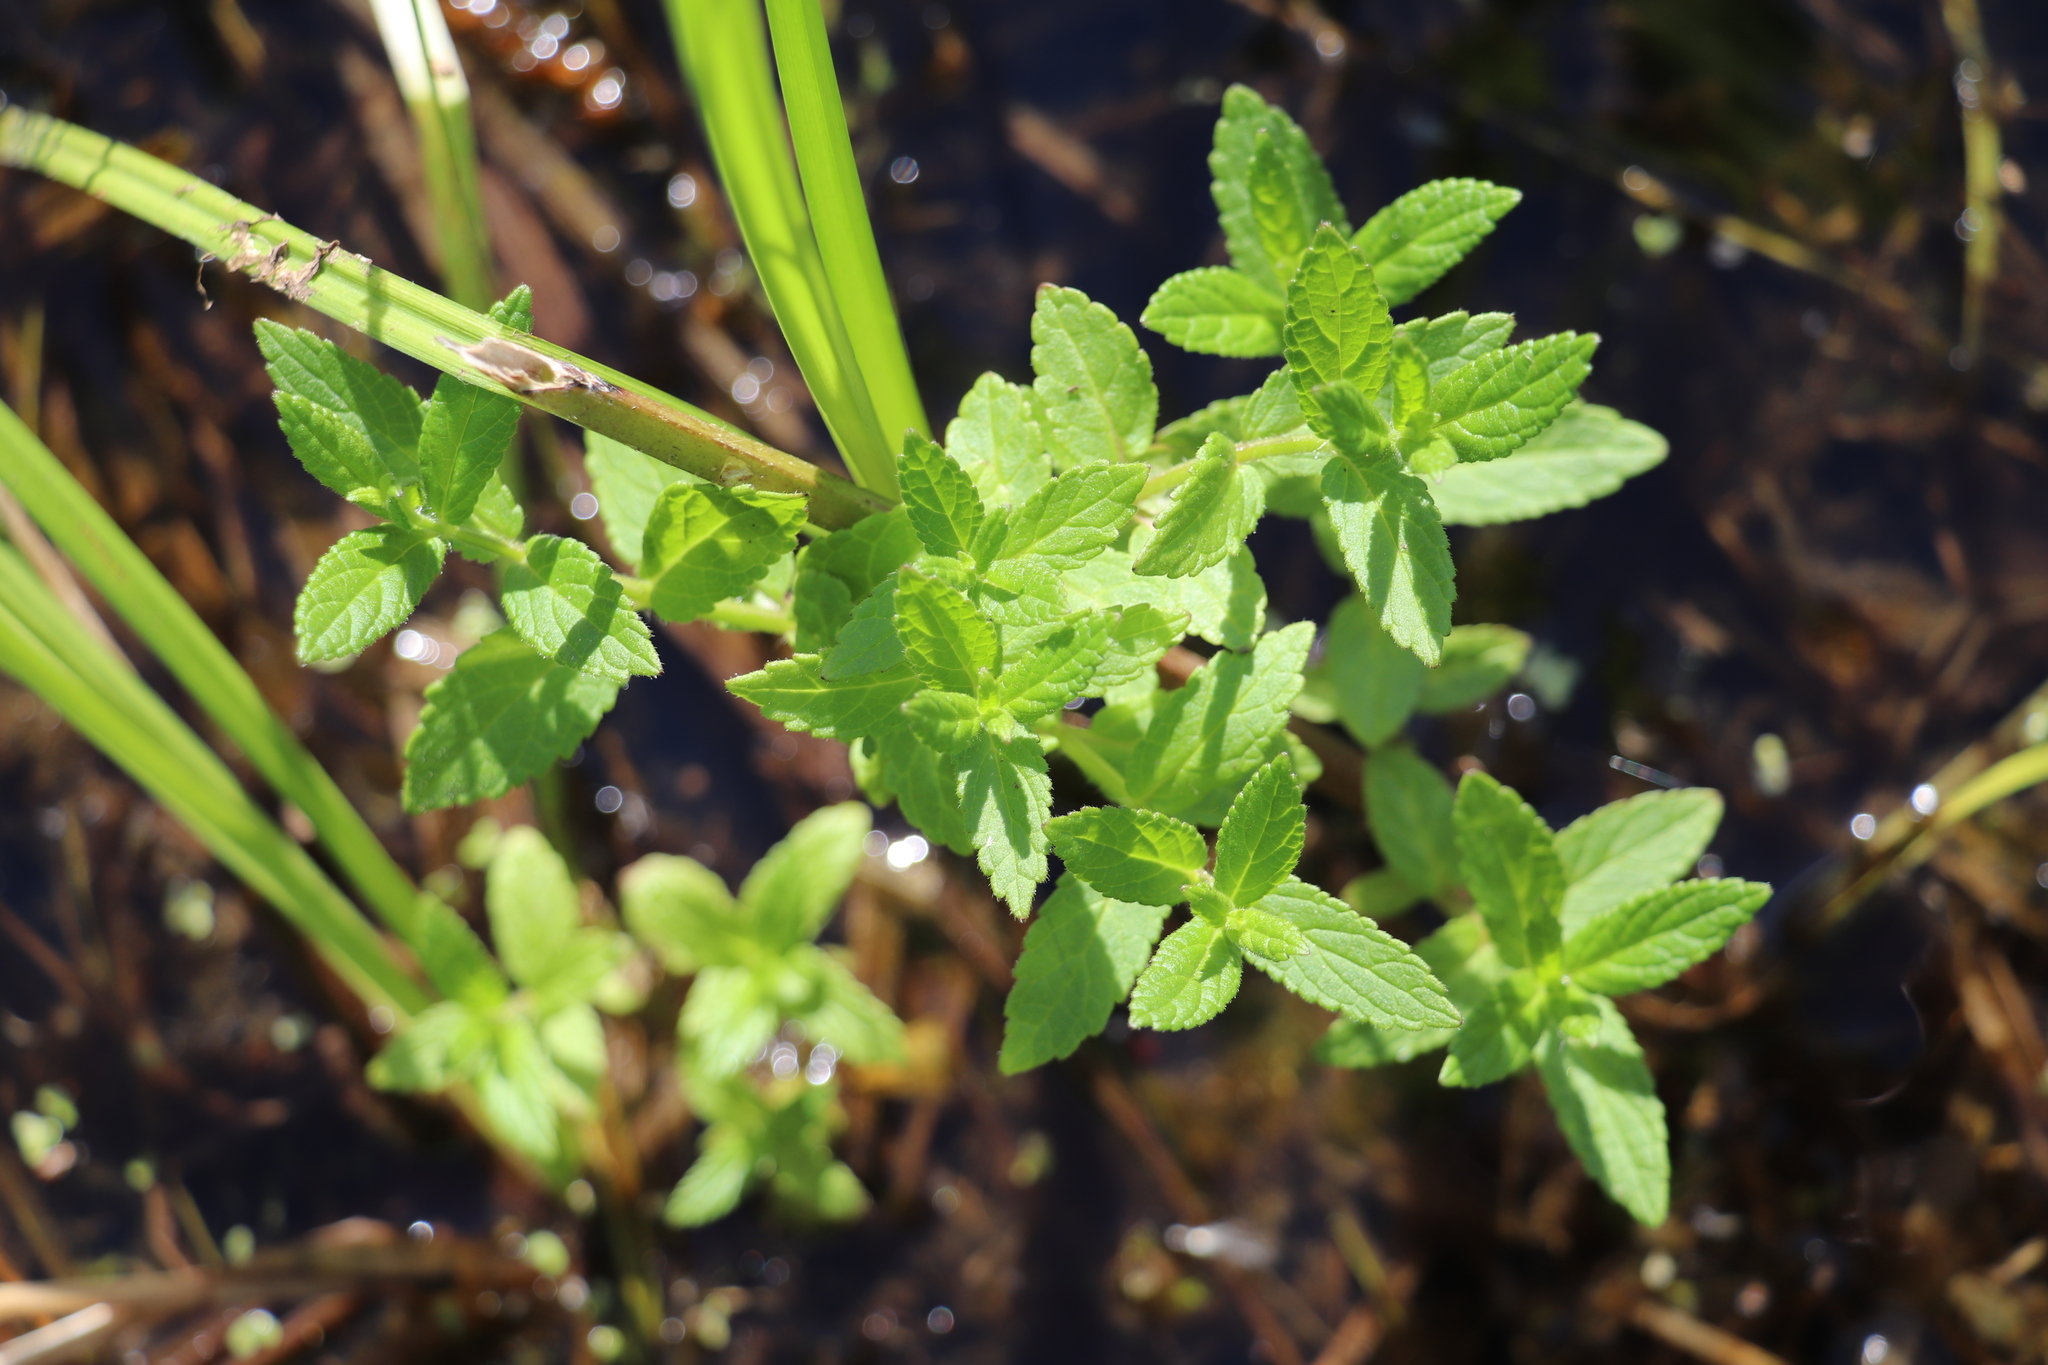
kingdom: Plantae
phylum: Tracheophyta
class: Magnoliopsida
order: Lamiales
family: Lamiaceae
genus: Scutellaria
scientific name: Scutellaria galericulata
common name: Skullcap
